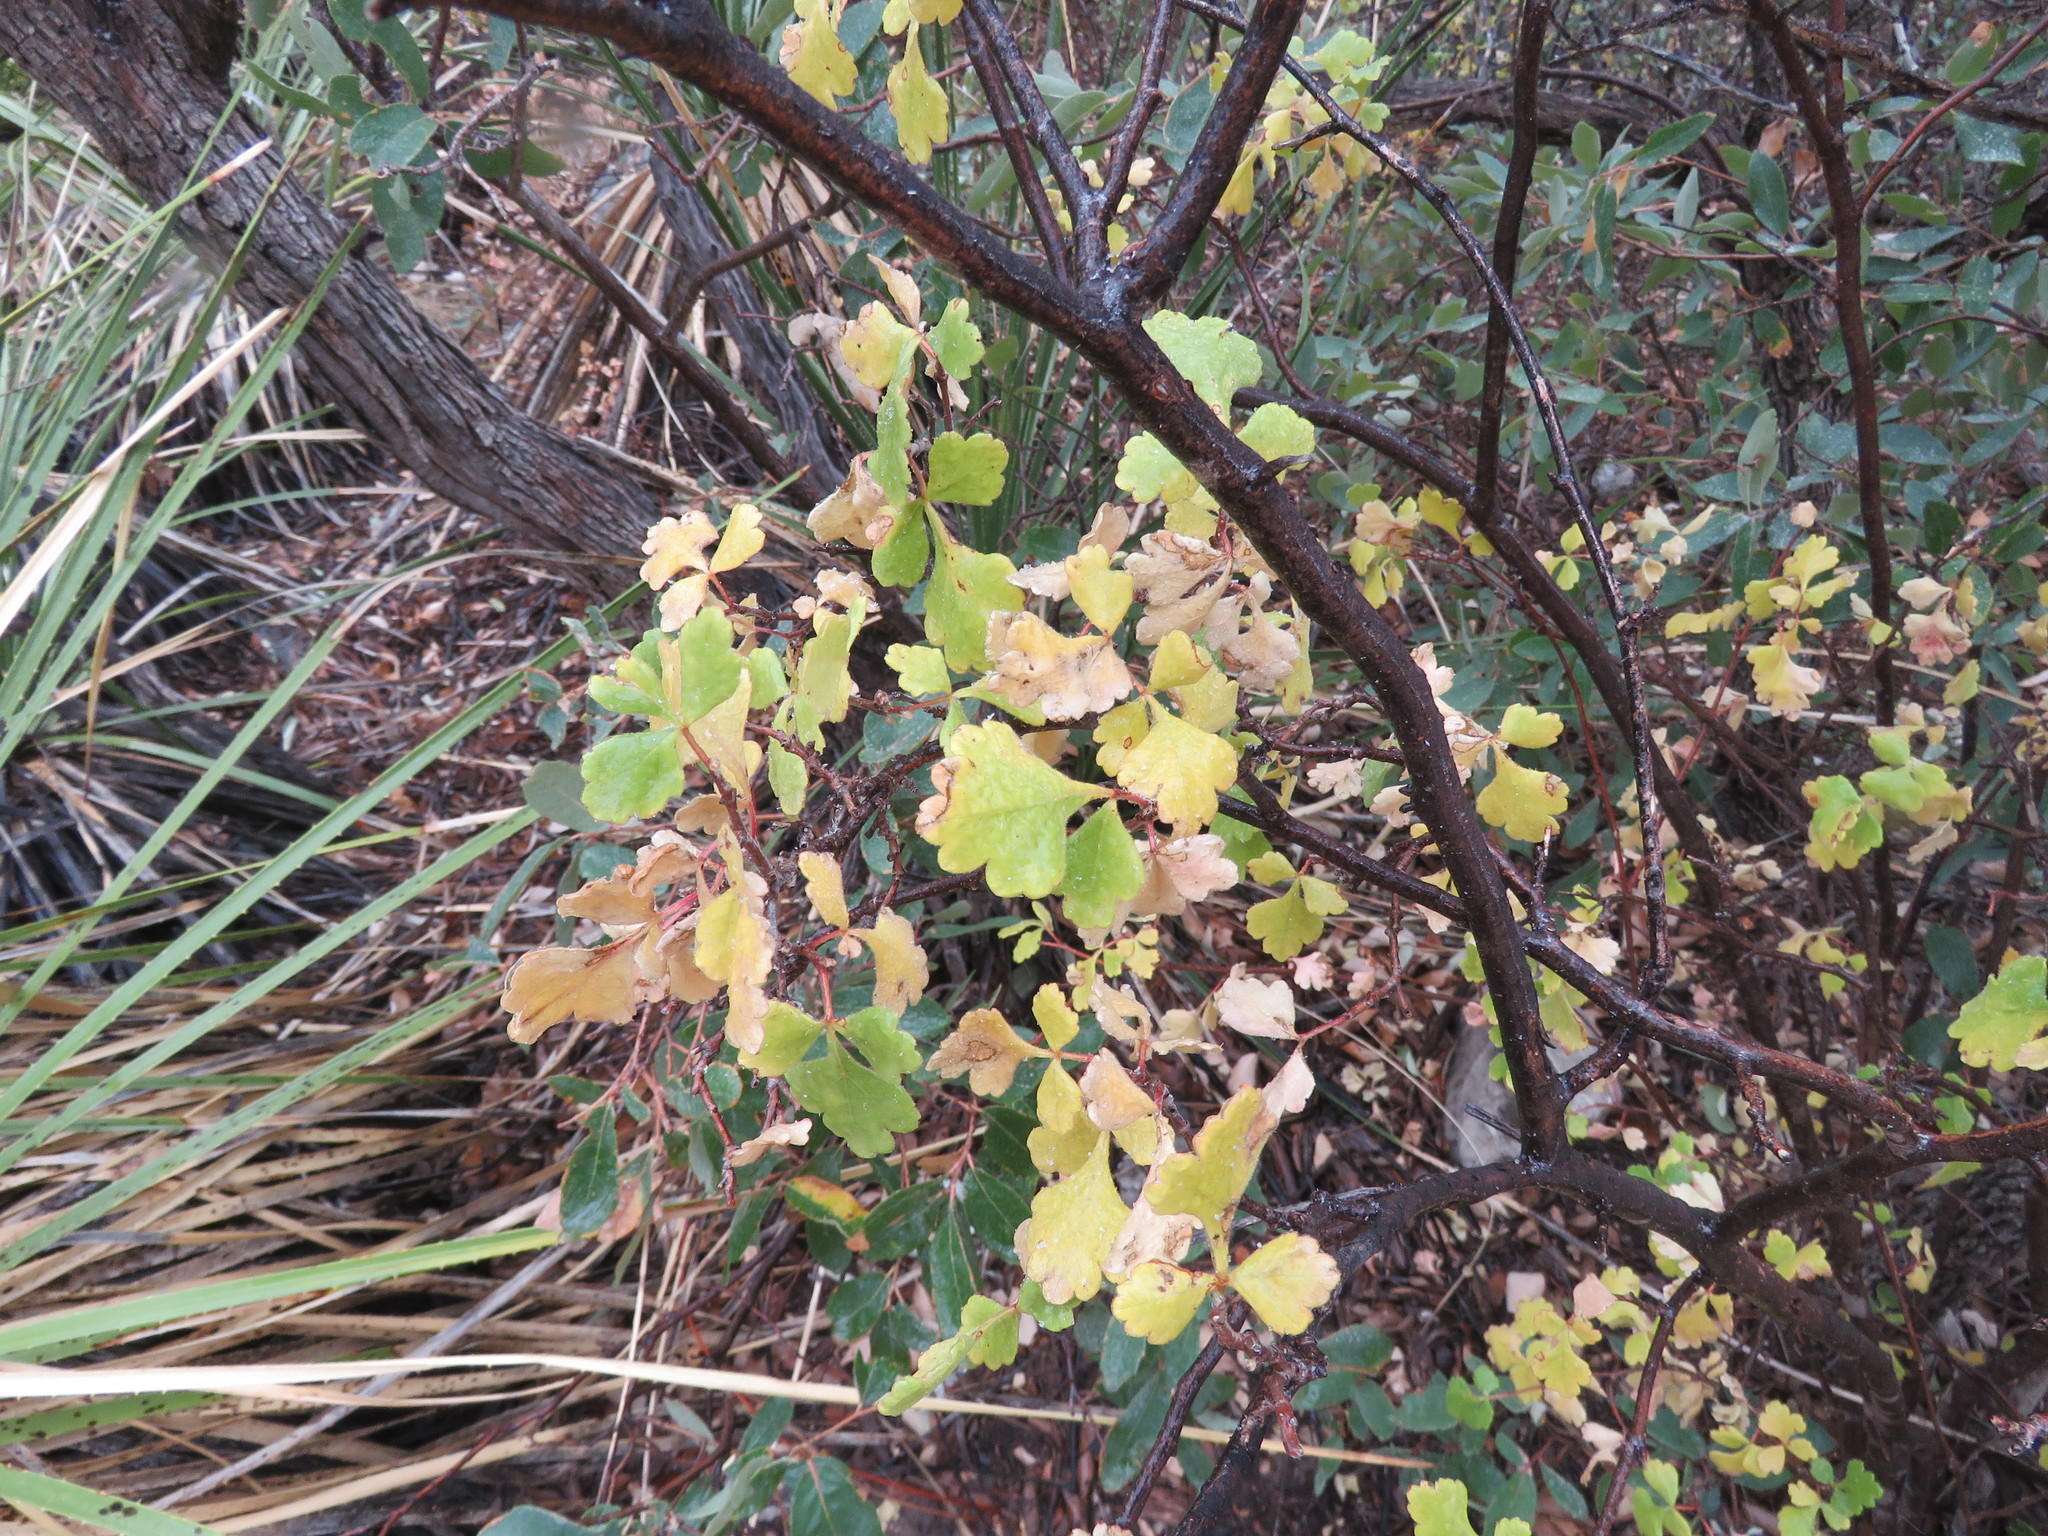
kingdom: Plantae
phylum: Tracheophyta
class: Magnoliopsida
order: Sapindales
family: Anacardiaceae
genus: Rhus
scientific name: Rhus aromatica
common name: Aromatic sumac
